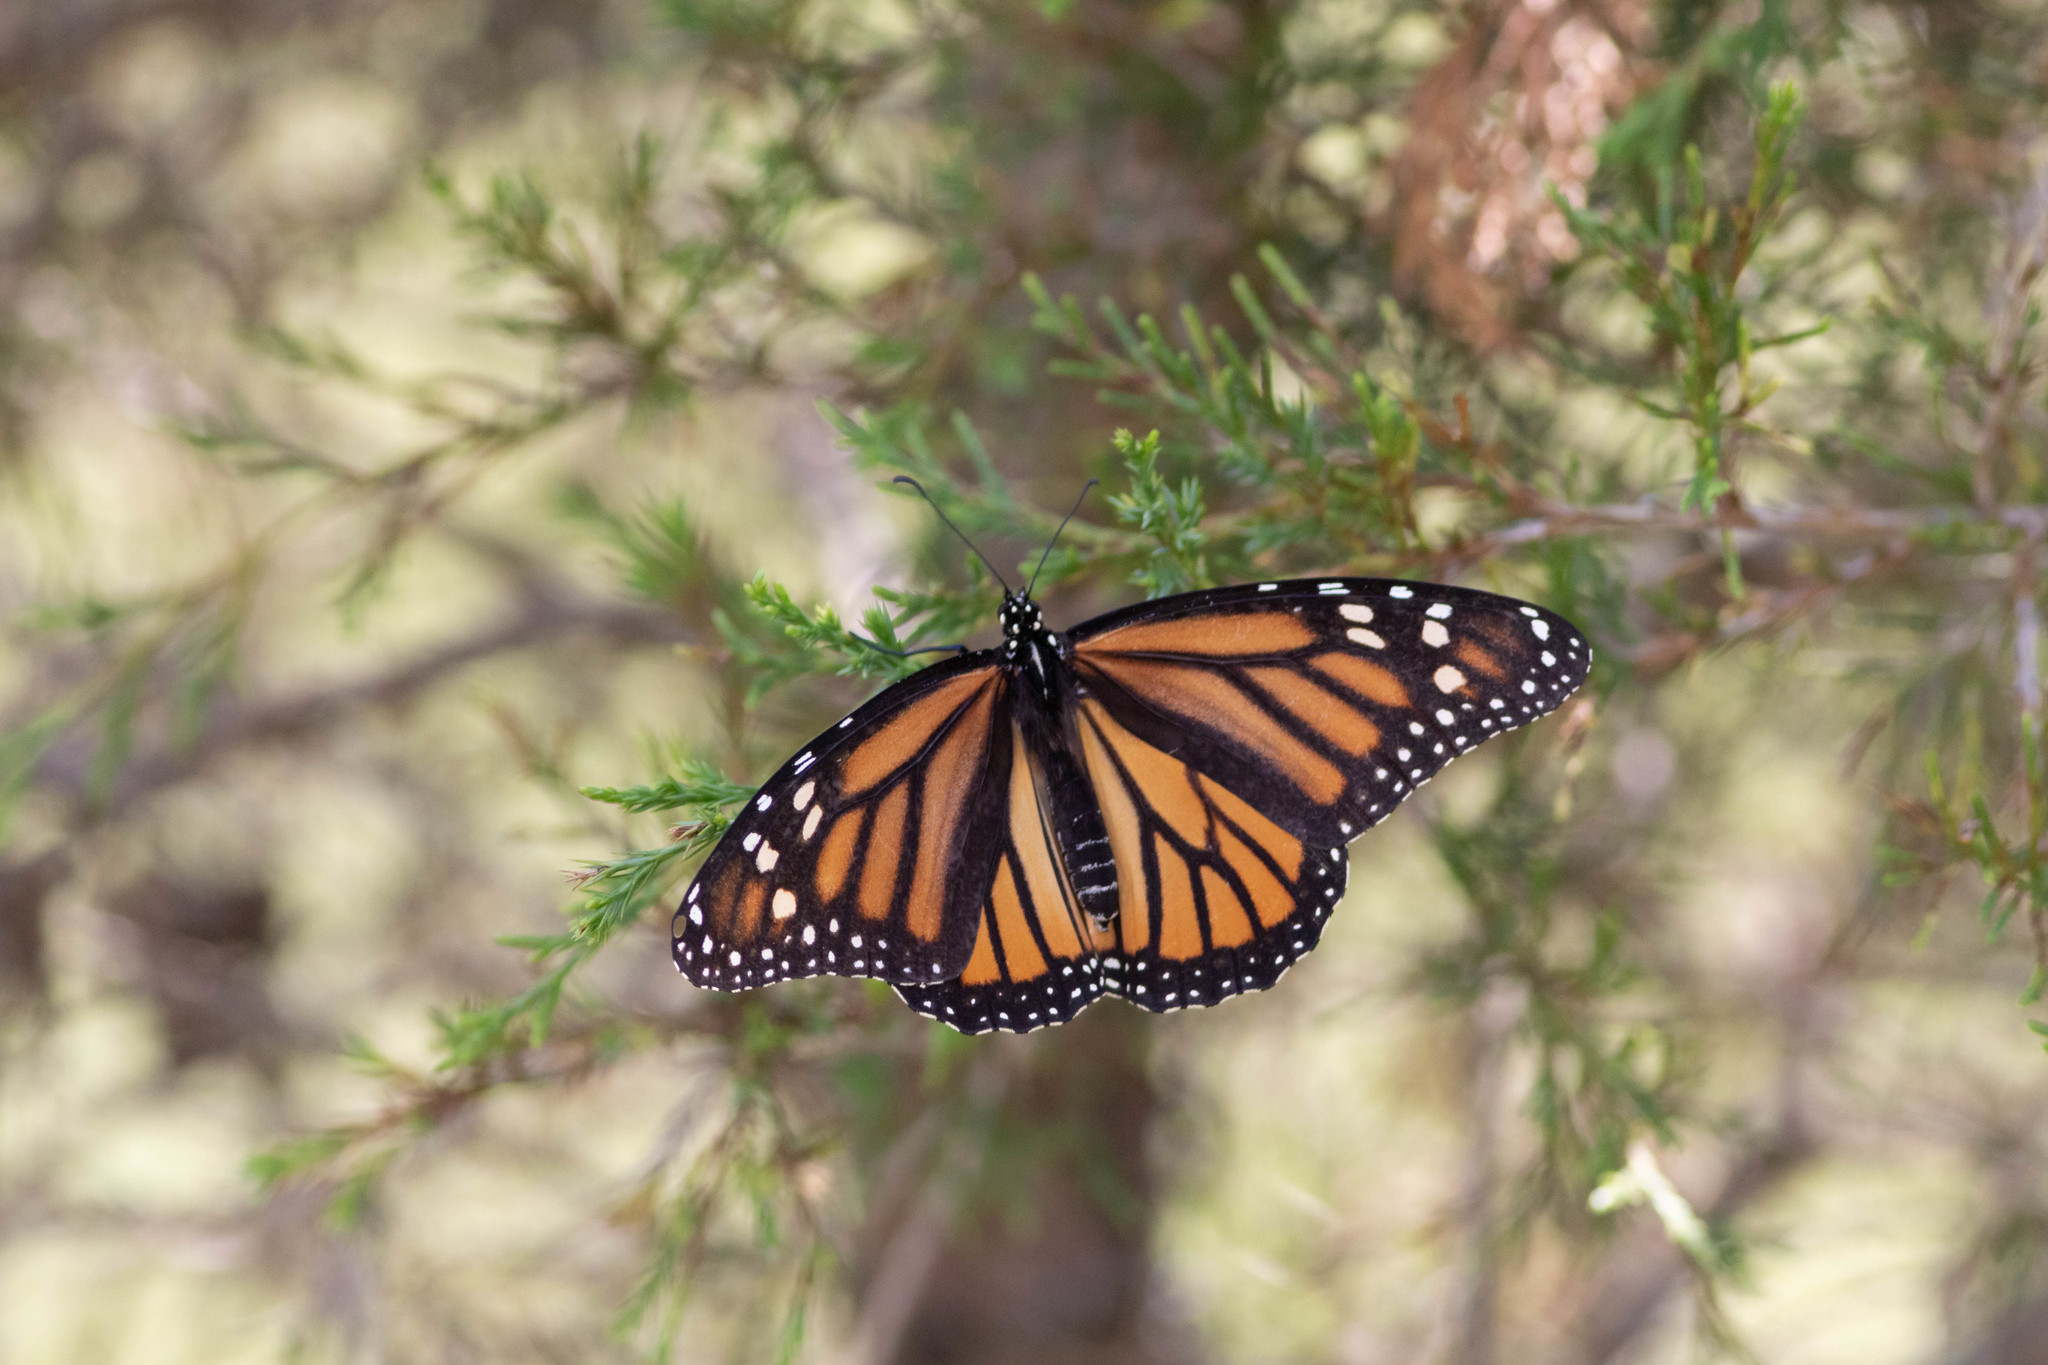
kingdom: Animalia
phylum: Arthropoda
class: Insecta
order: Lepidoptera
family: Nymphalidae
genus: Danaus
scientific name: Danaus plexippus
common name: Monarch
